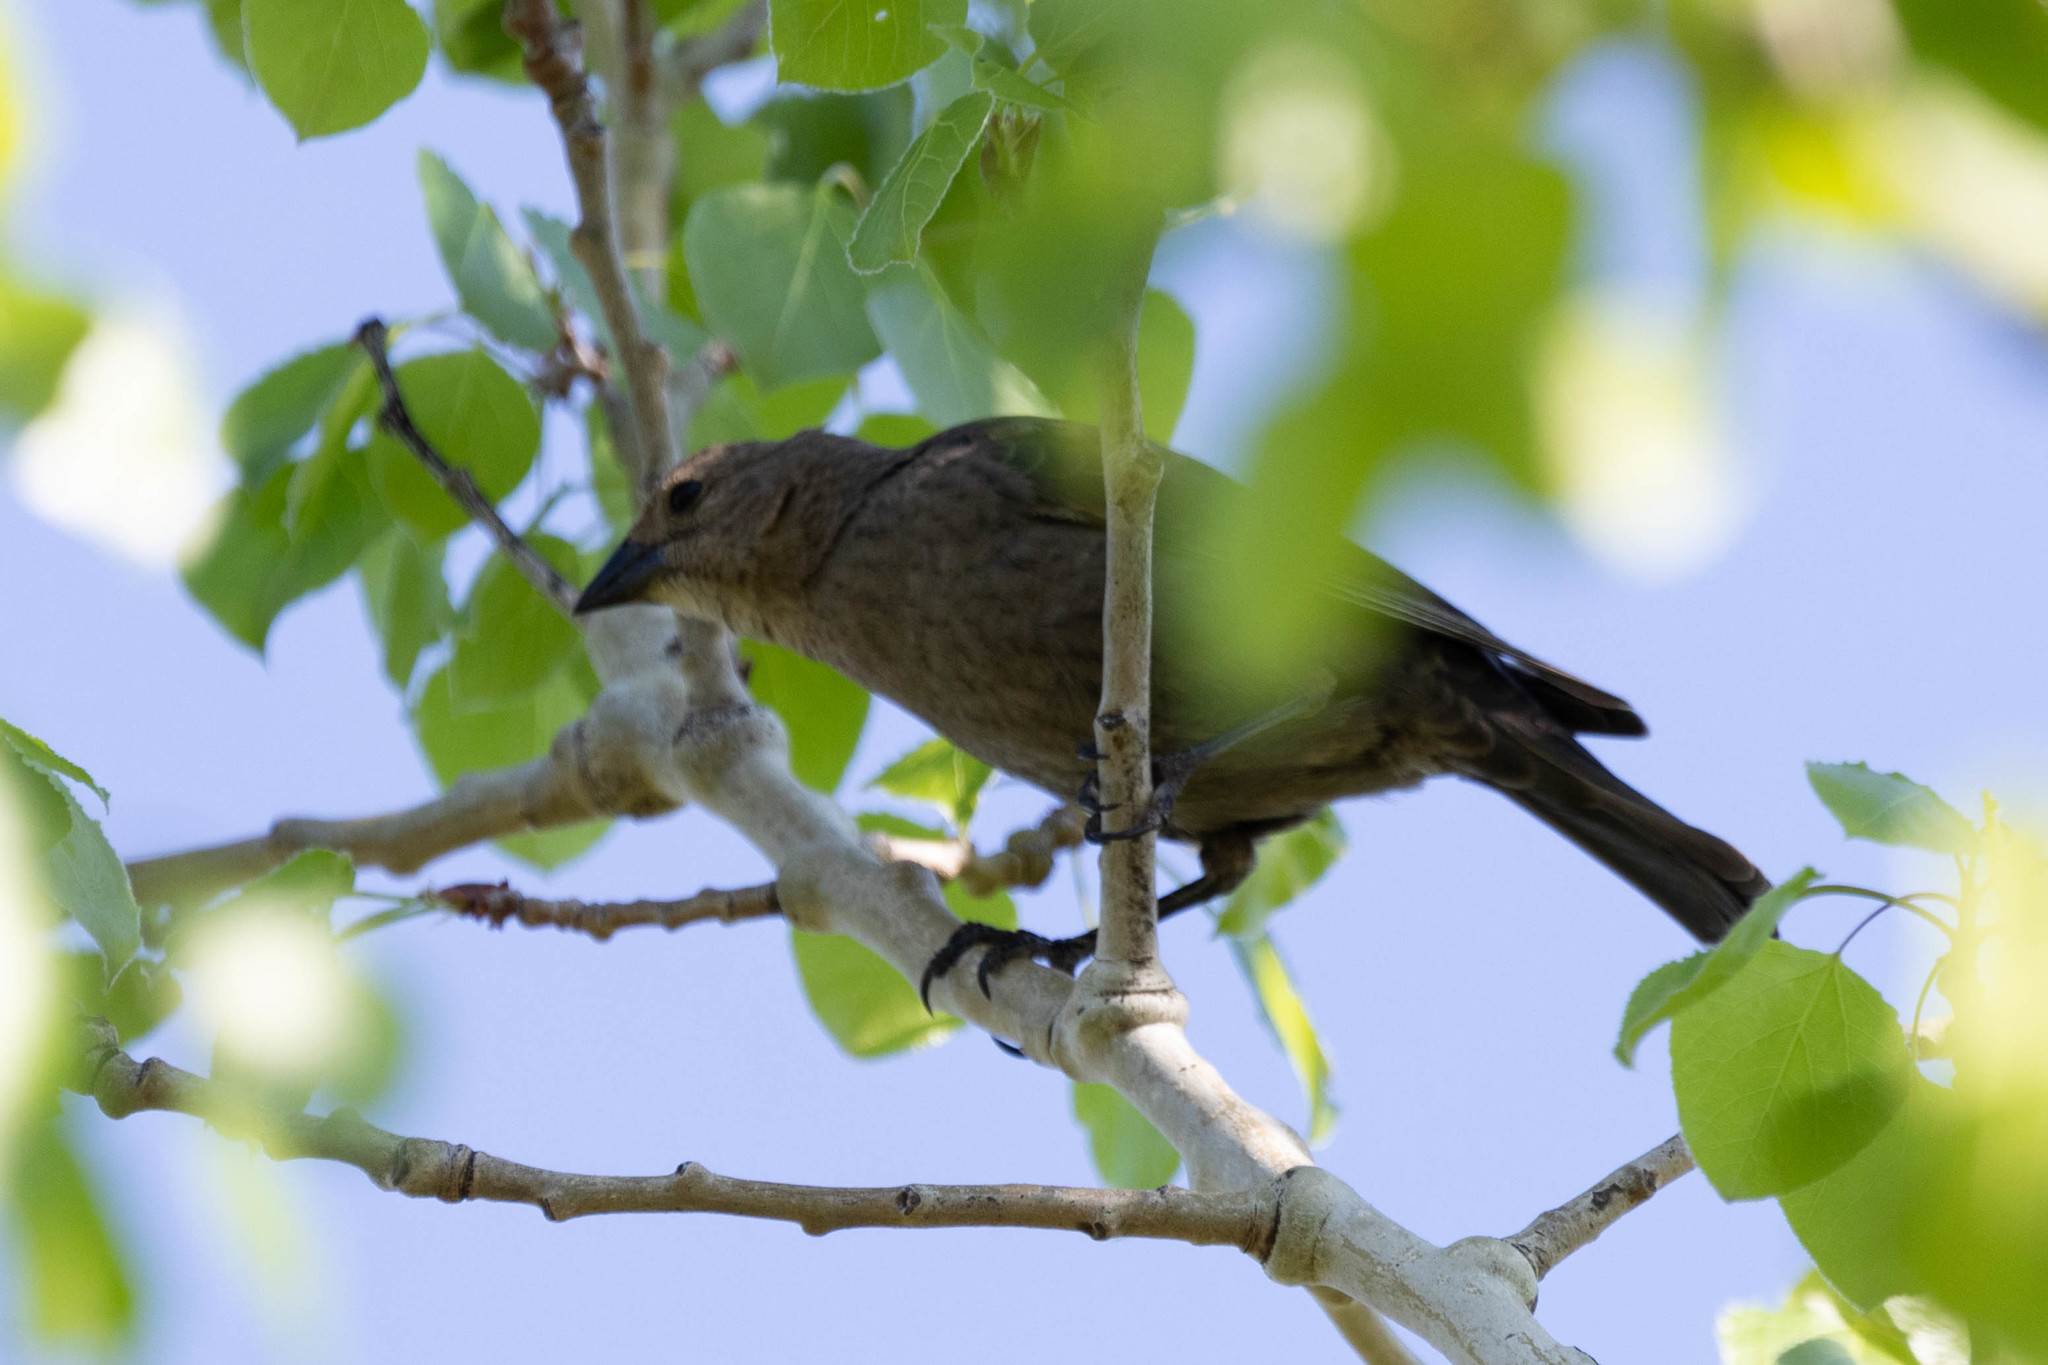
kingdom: Animalia
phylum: Chordata
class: Aves
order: Passeriformes
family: Icteridae
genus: Molothrus
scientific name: Molothrus ater
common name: Brown-headed cowbird
